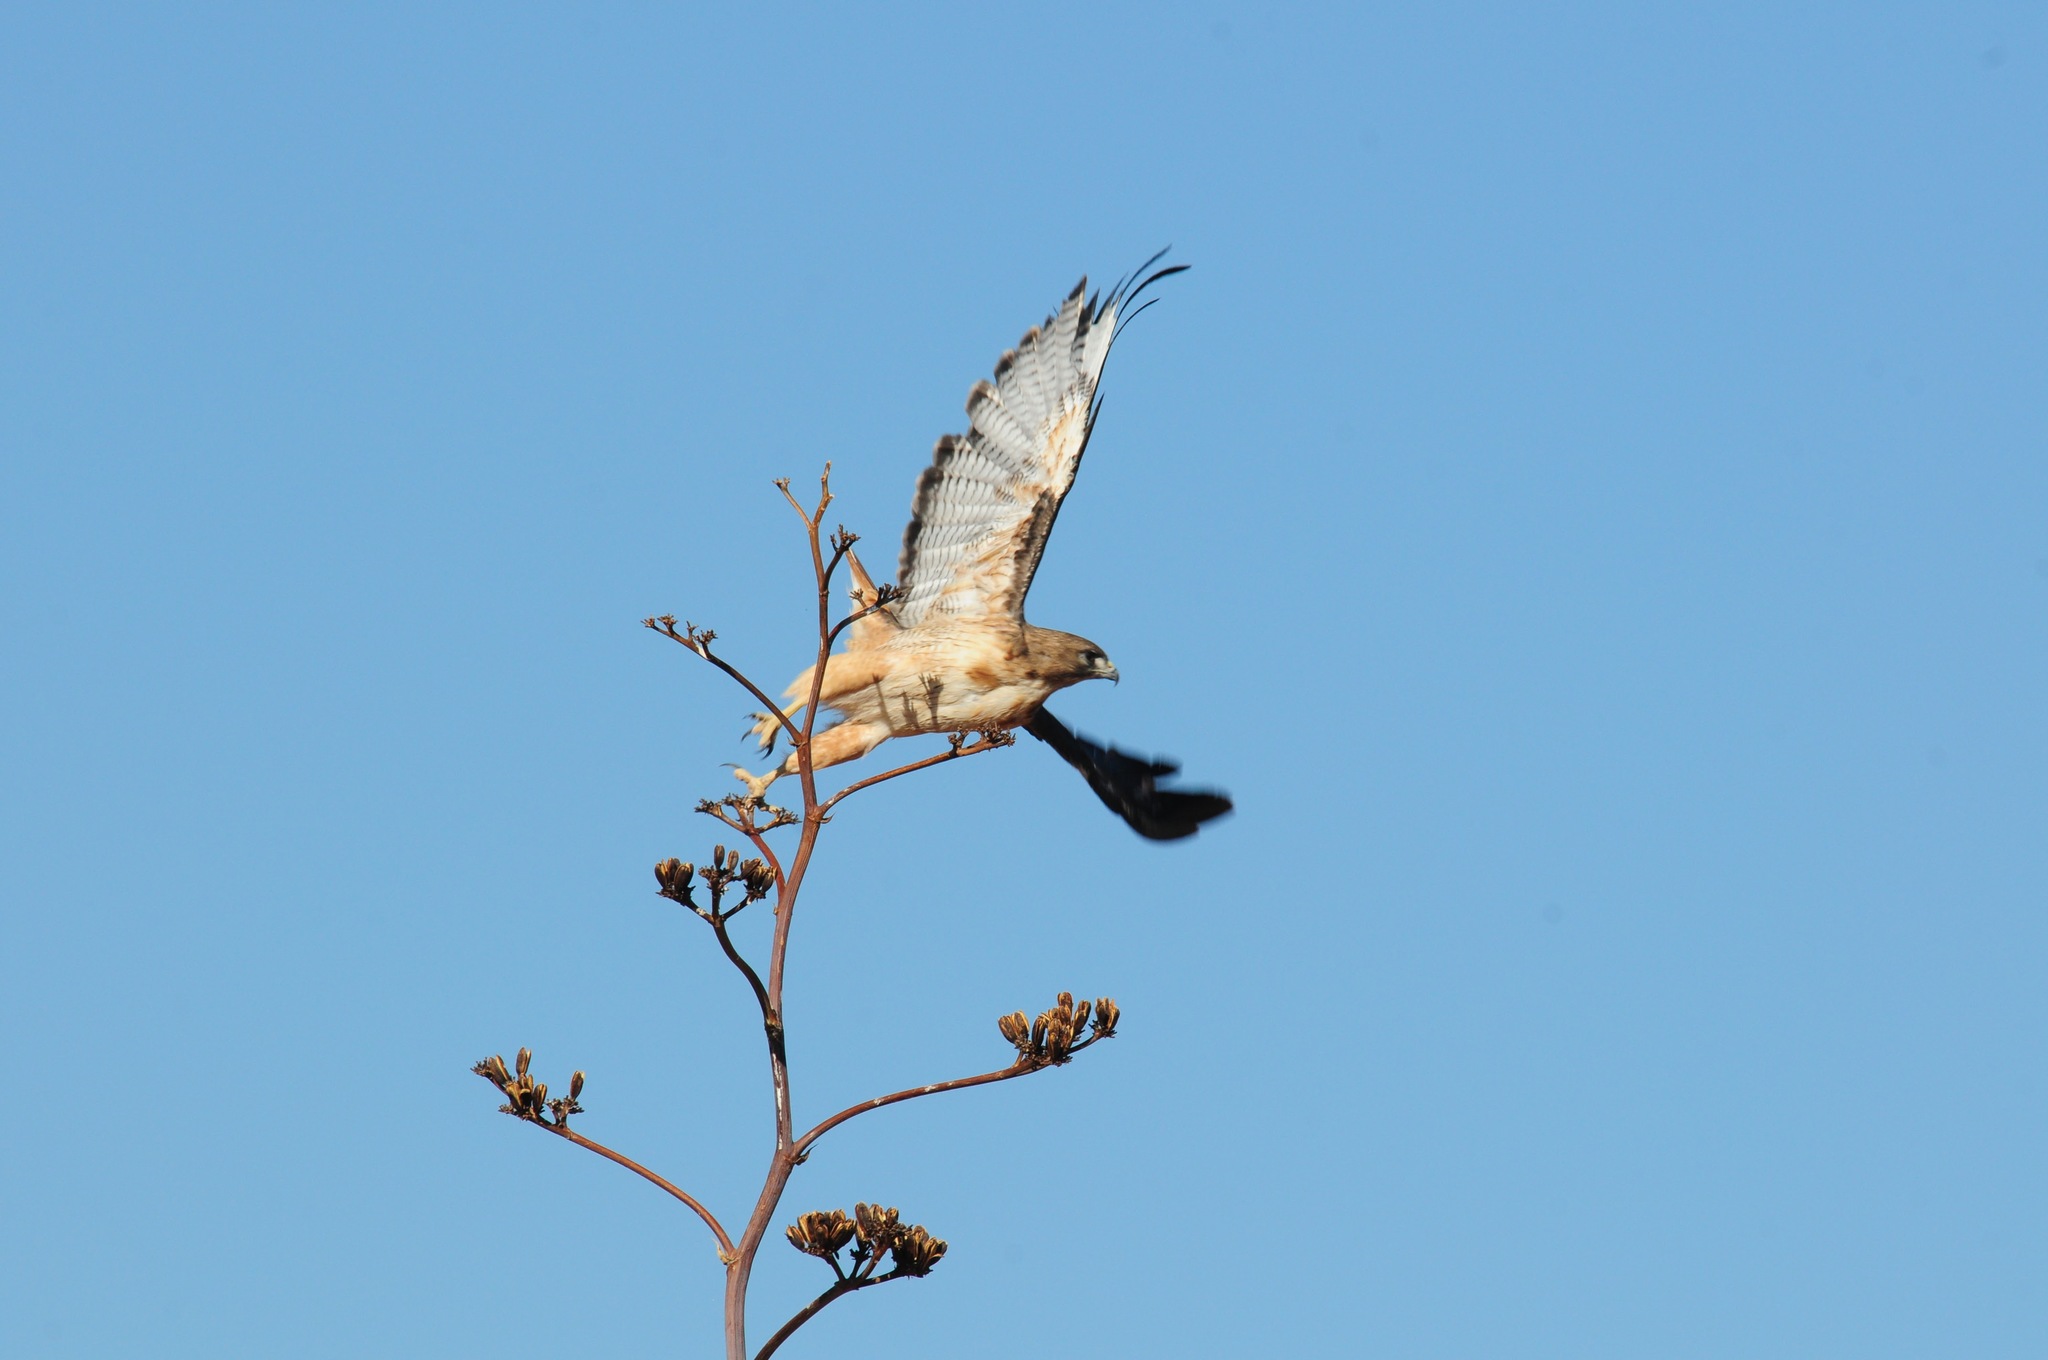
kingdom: Animalia
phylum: Chordata
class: Aves
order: Accipitriformes
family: Accipitridae
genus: Buteo
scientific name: Buteo jamaicensis
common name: Red-tailed hawk
